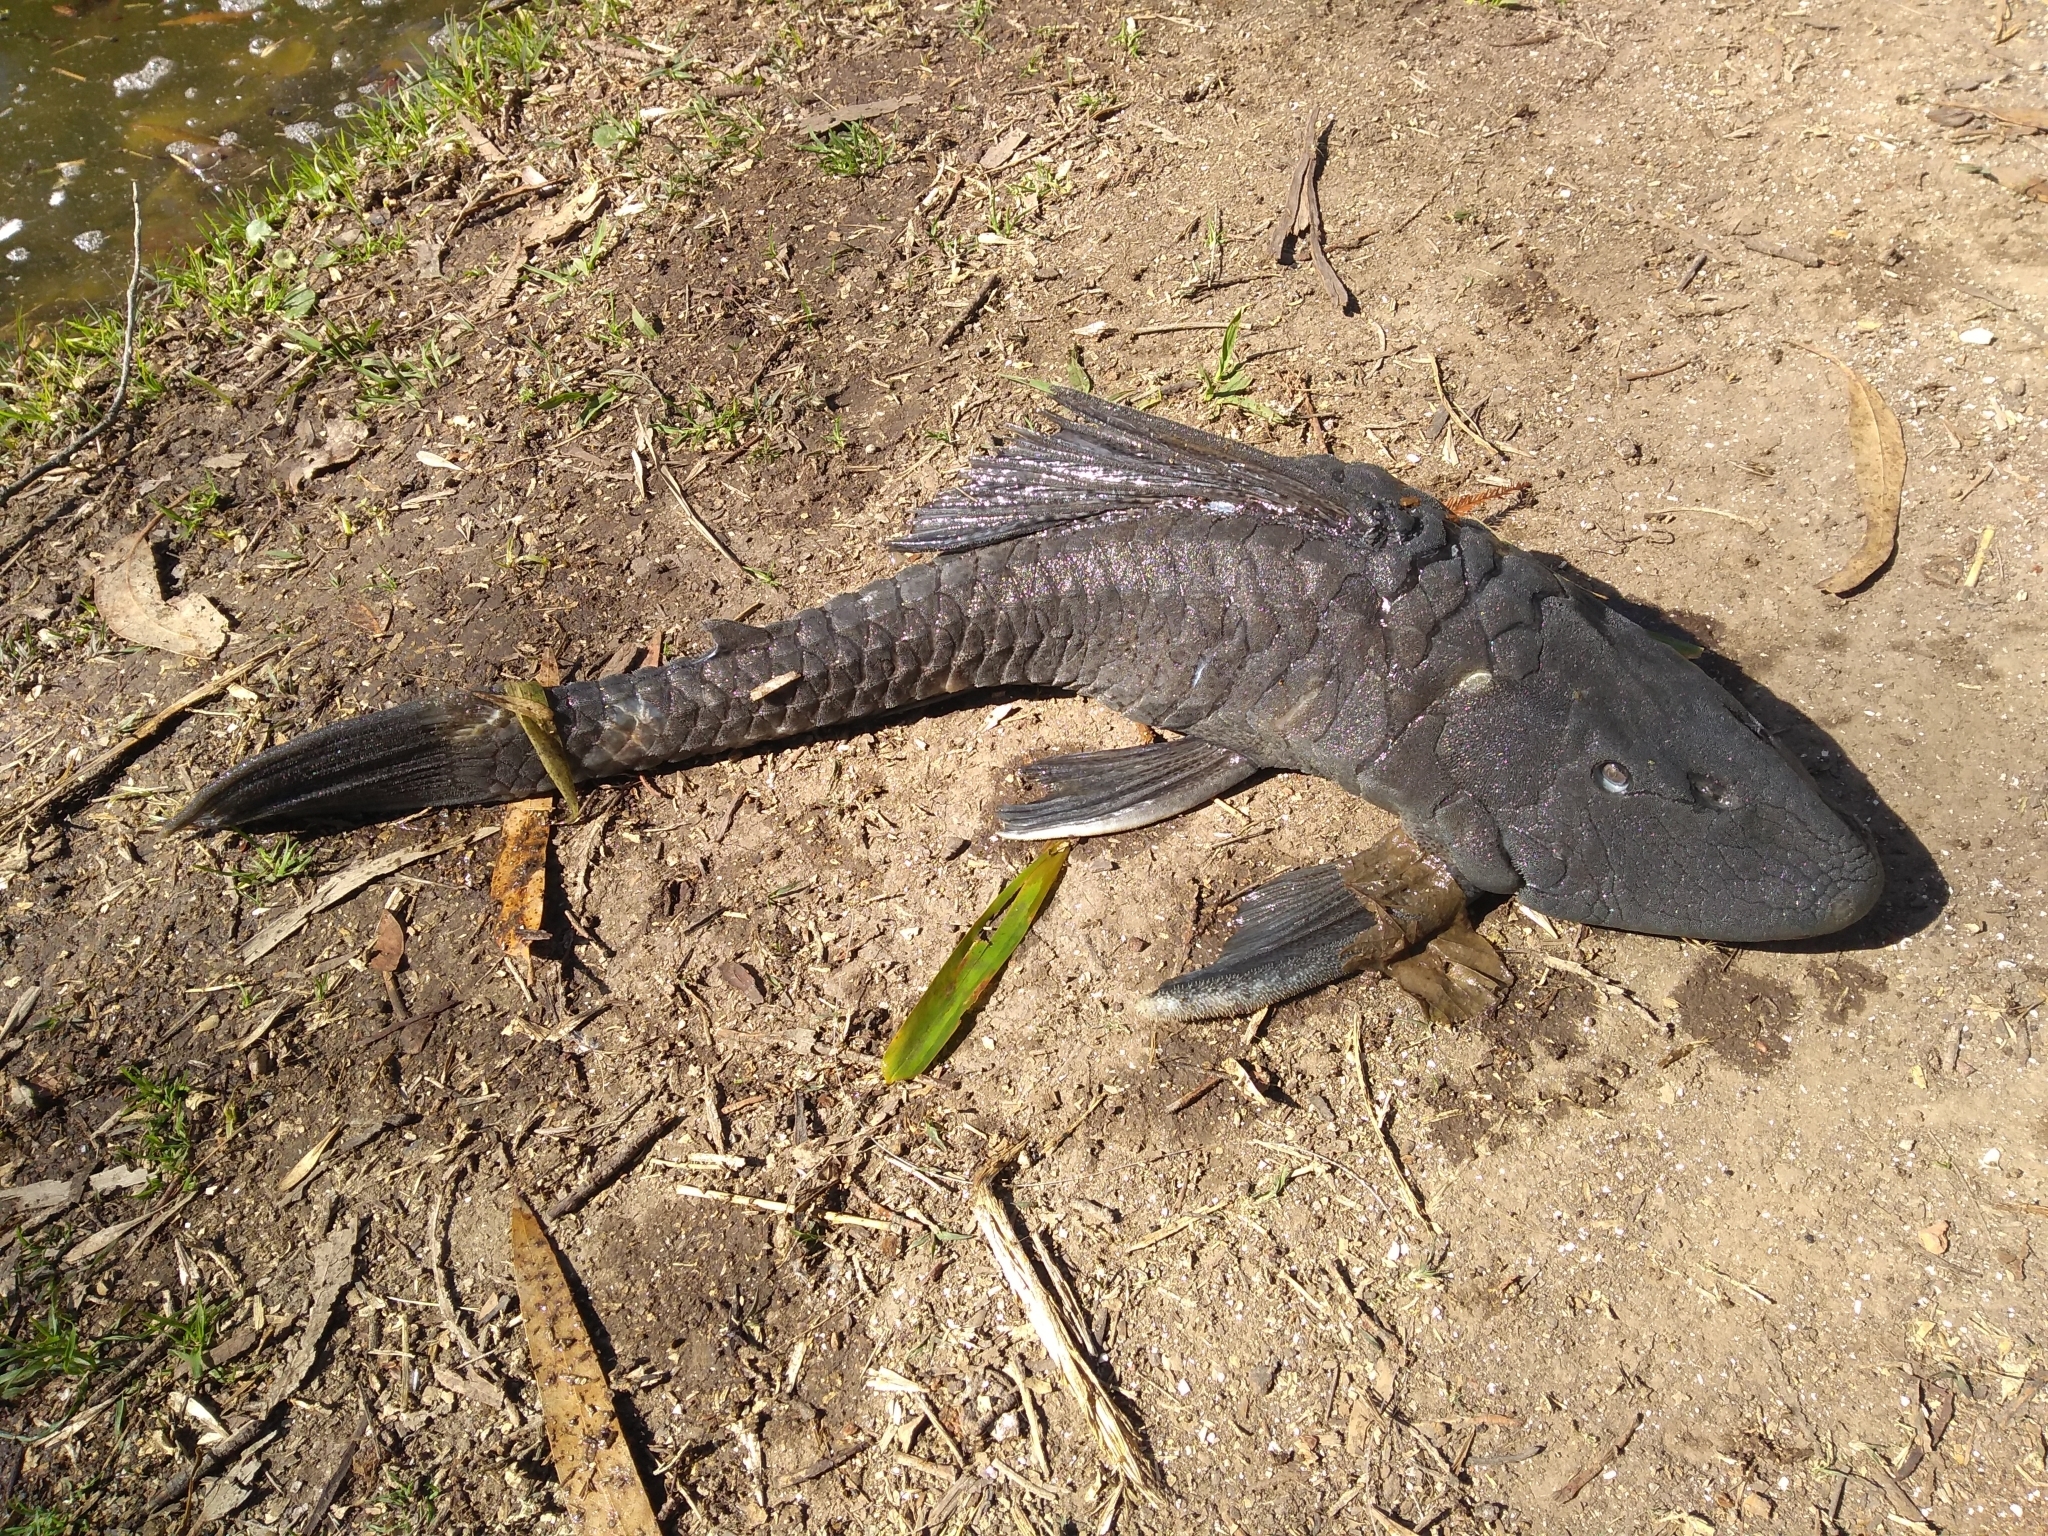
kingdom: Animalia
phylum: Chordata
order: Siluriformes
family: Loricariidae
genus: Hypostomus
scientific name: Hypostomus commersoni
